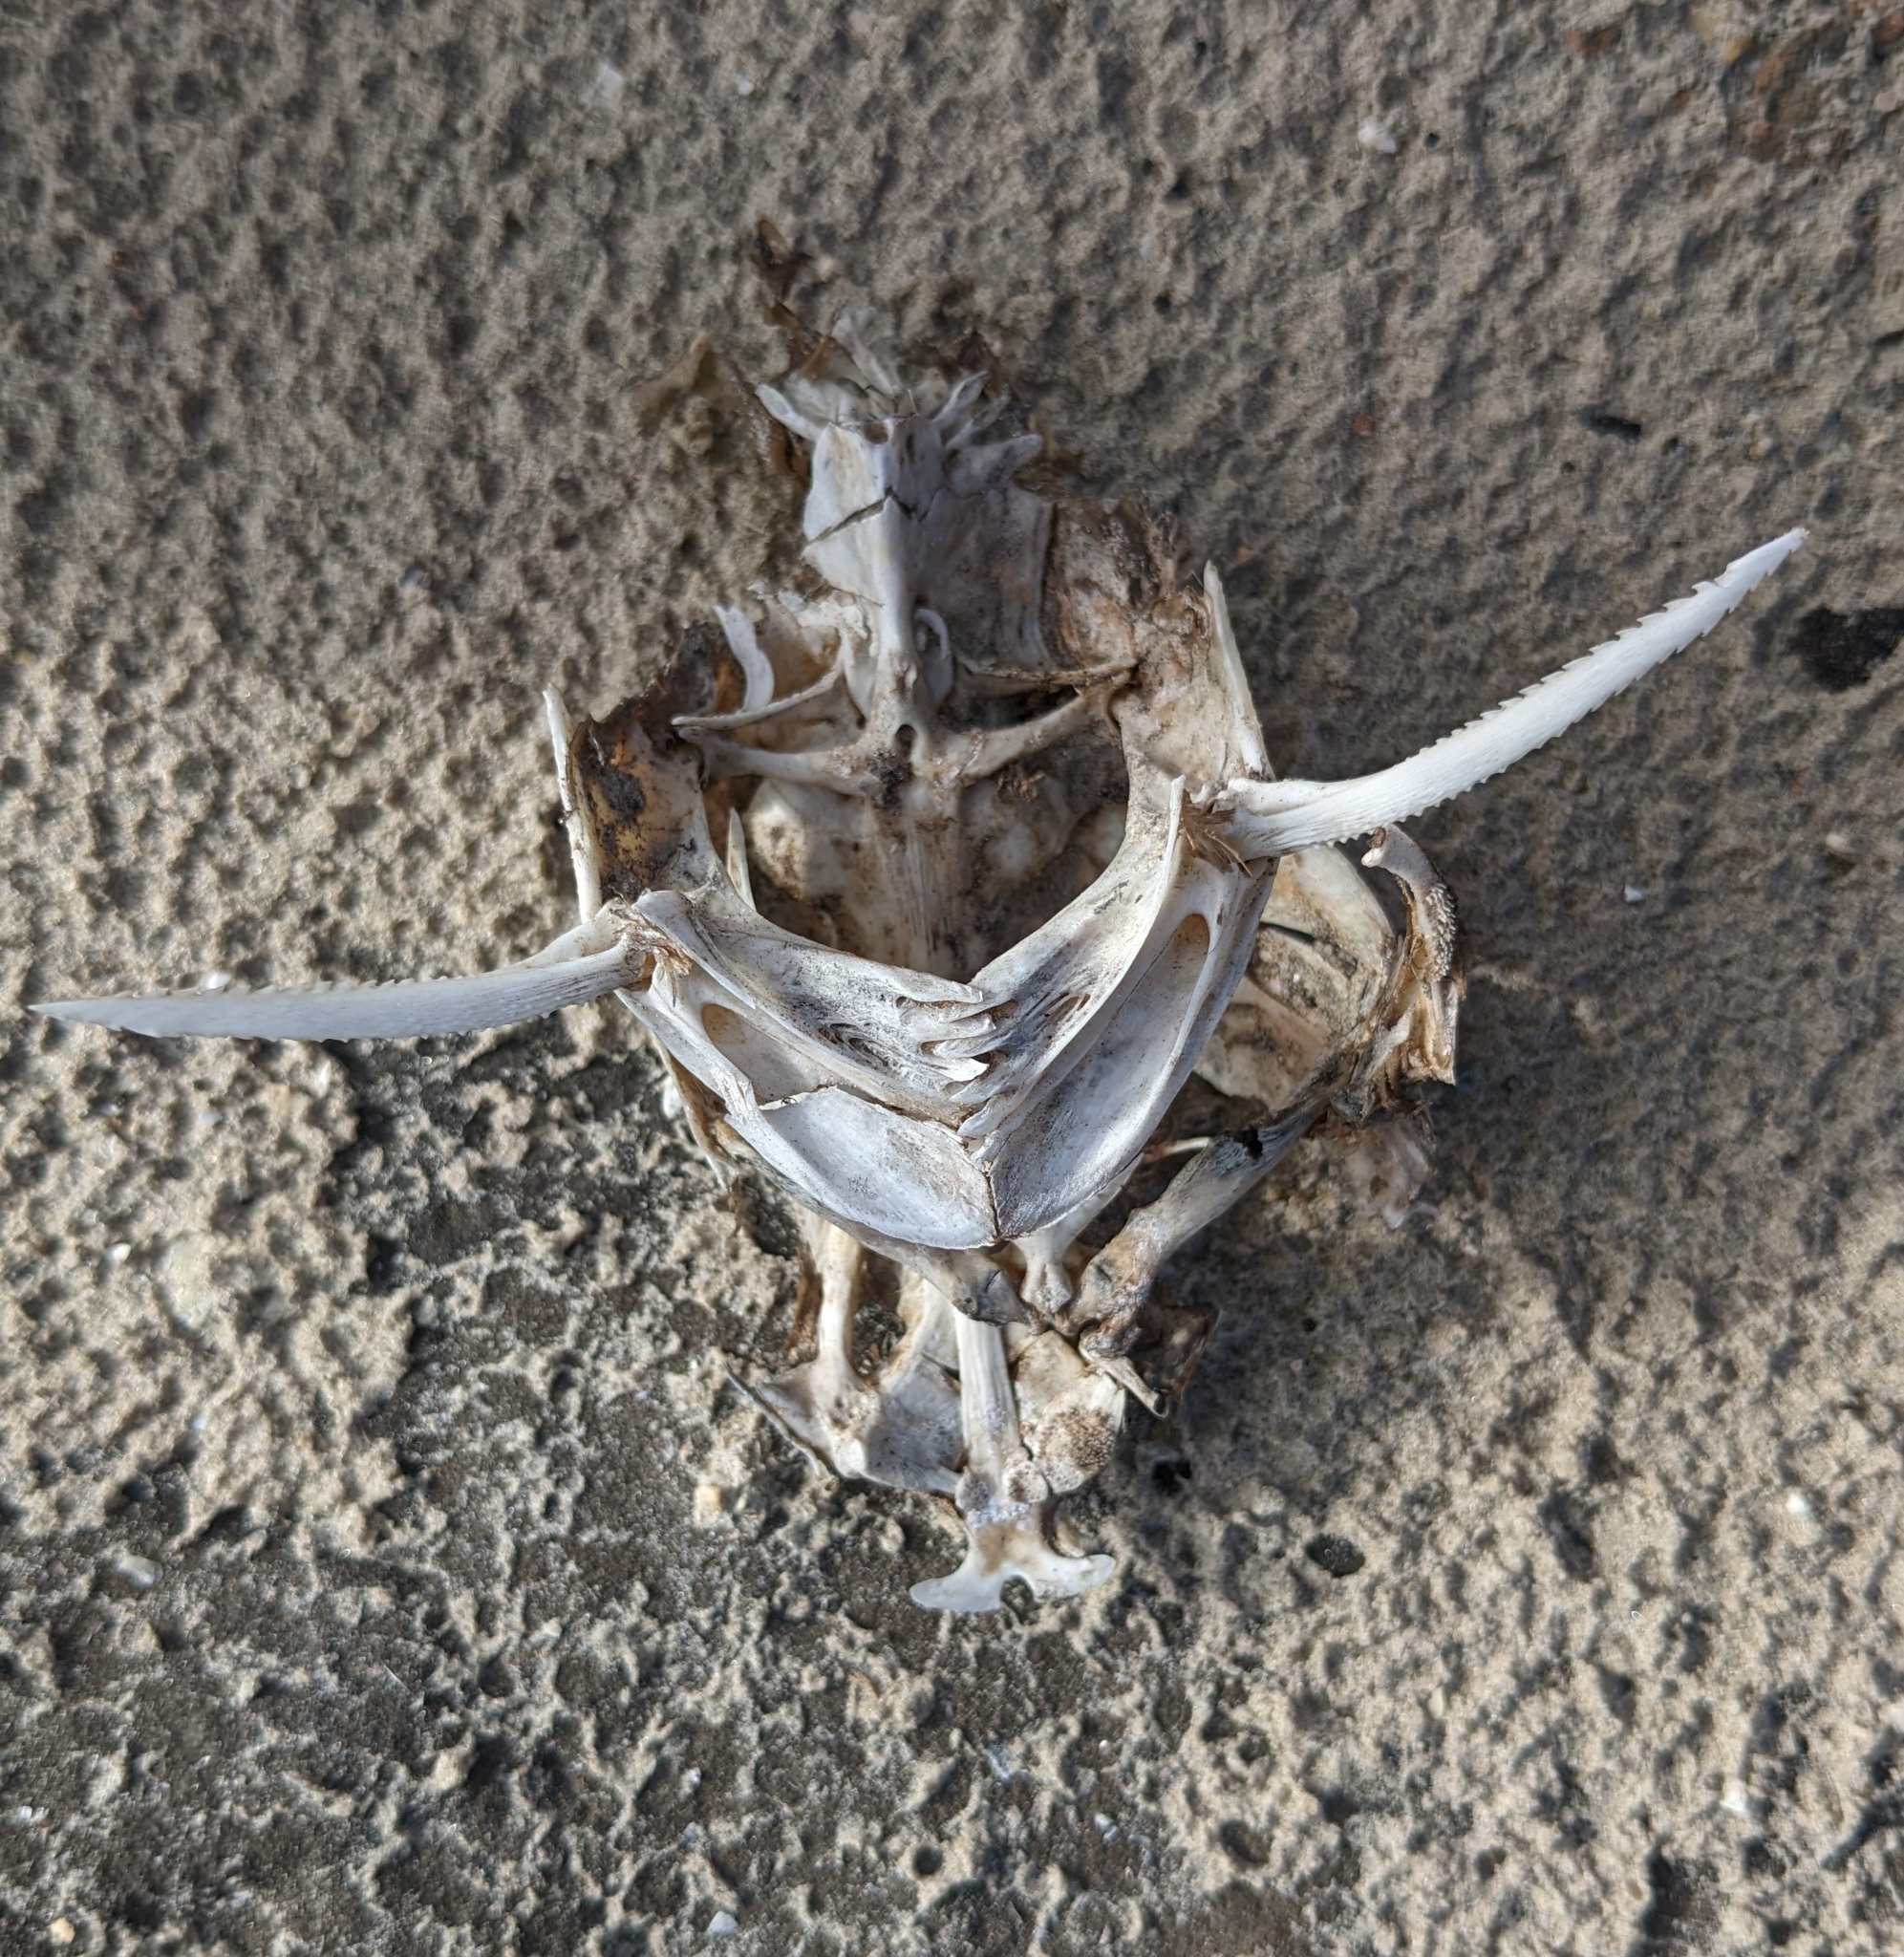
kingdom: Animalia
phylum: Chordata
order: Siluriformes
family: Ariidae
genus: Ariopsis
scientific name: Ariopsis felis
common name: Hardhead catfish
